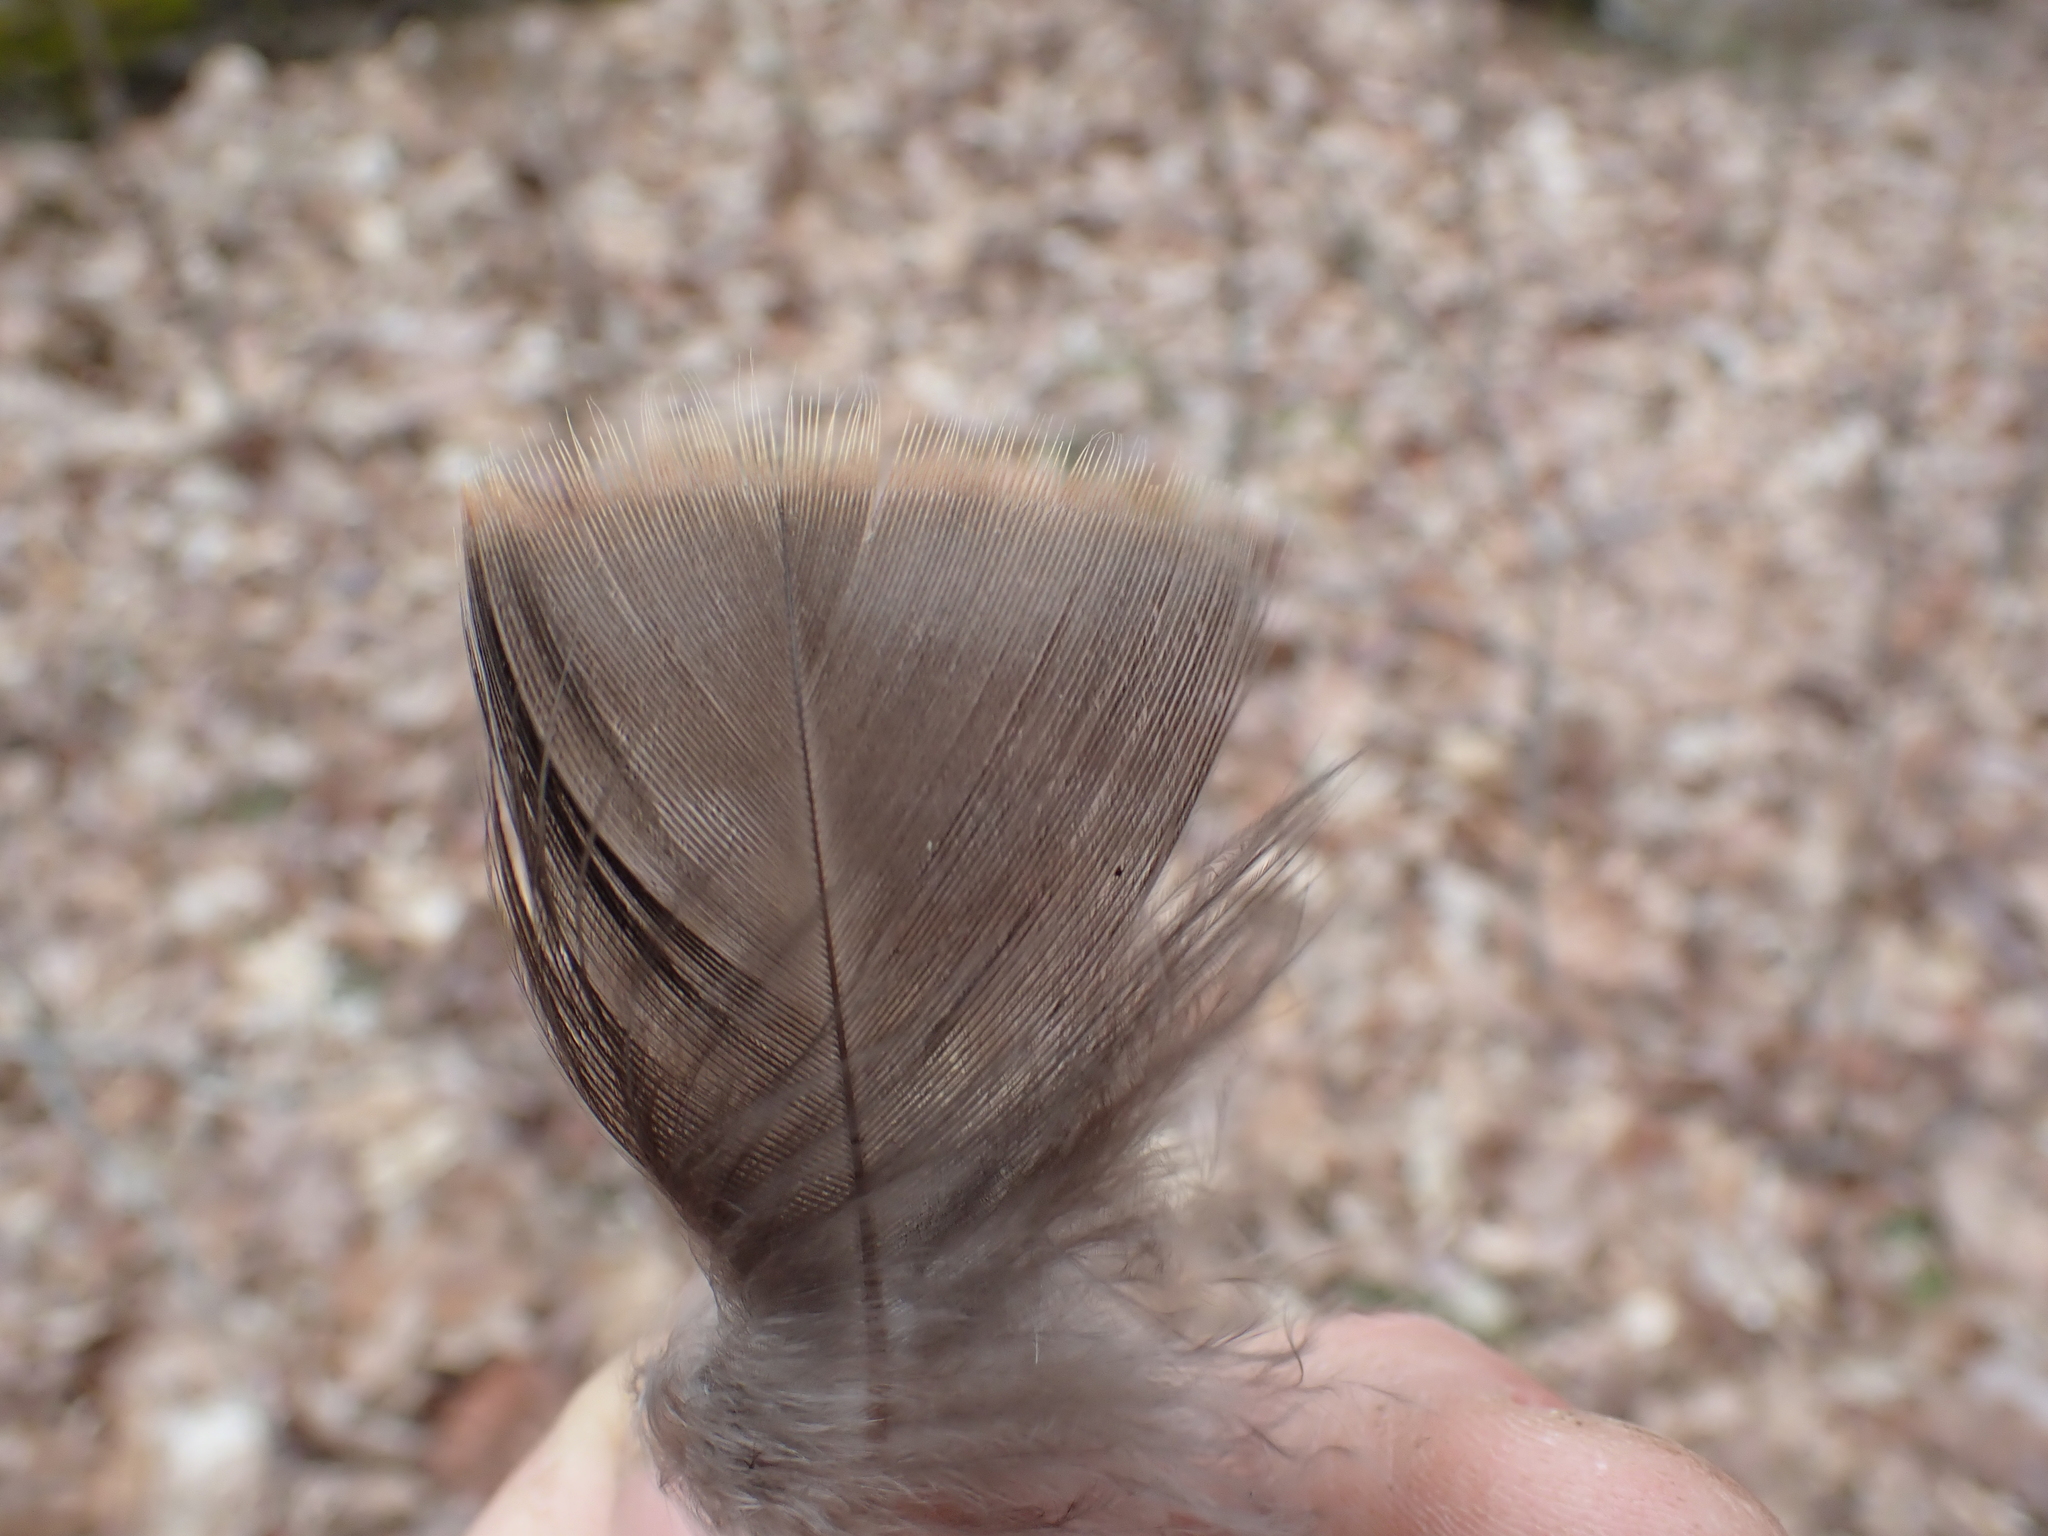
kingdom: Animalia
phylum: Chordata
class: Aves
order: Galliformes
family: Phasianidae
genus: Meleagris
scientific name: Meleagris gallopavo
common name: Wild turkey
